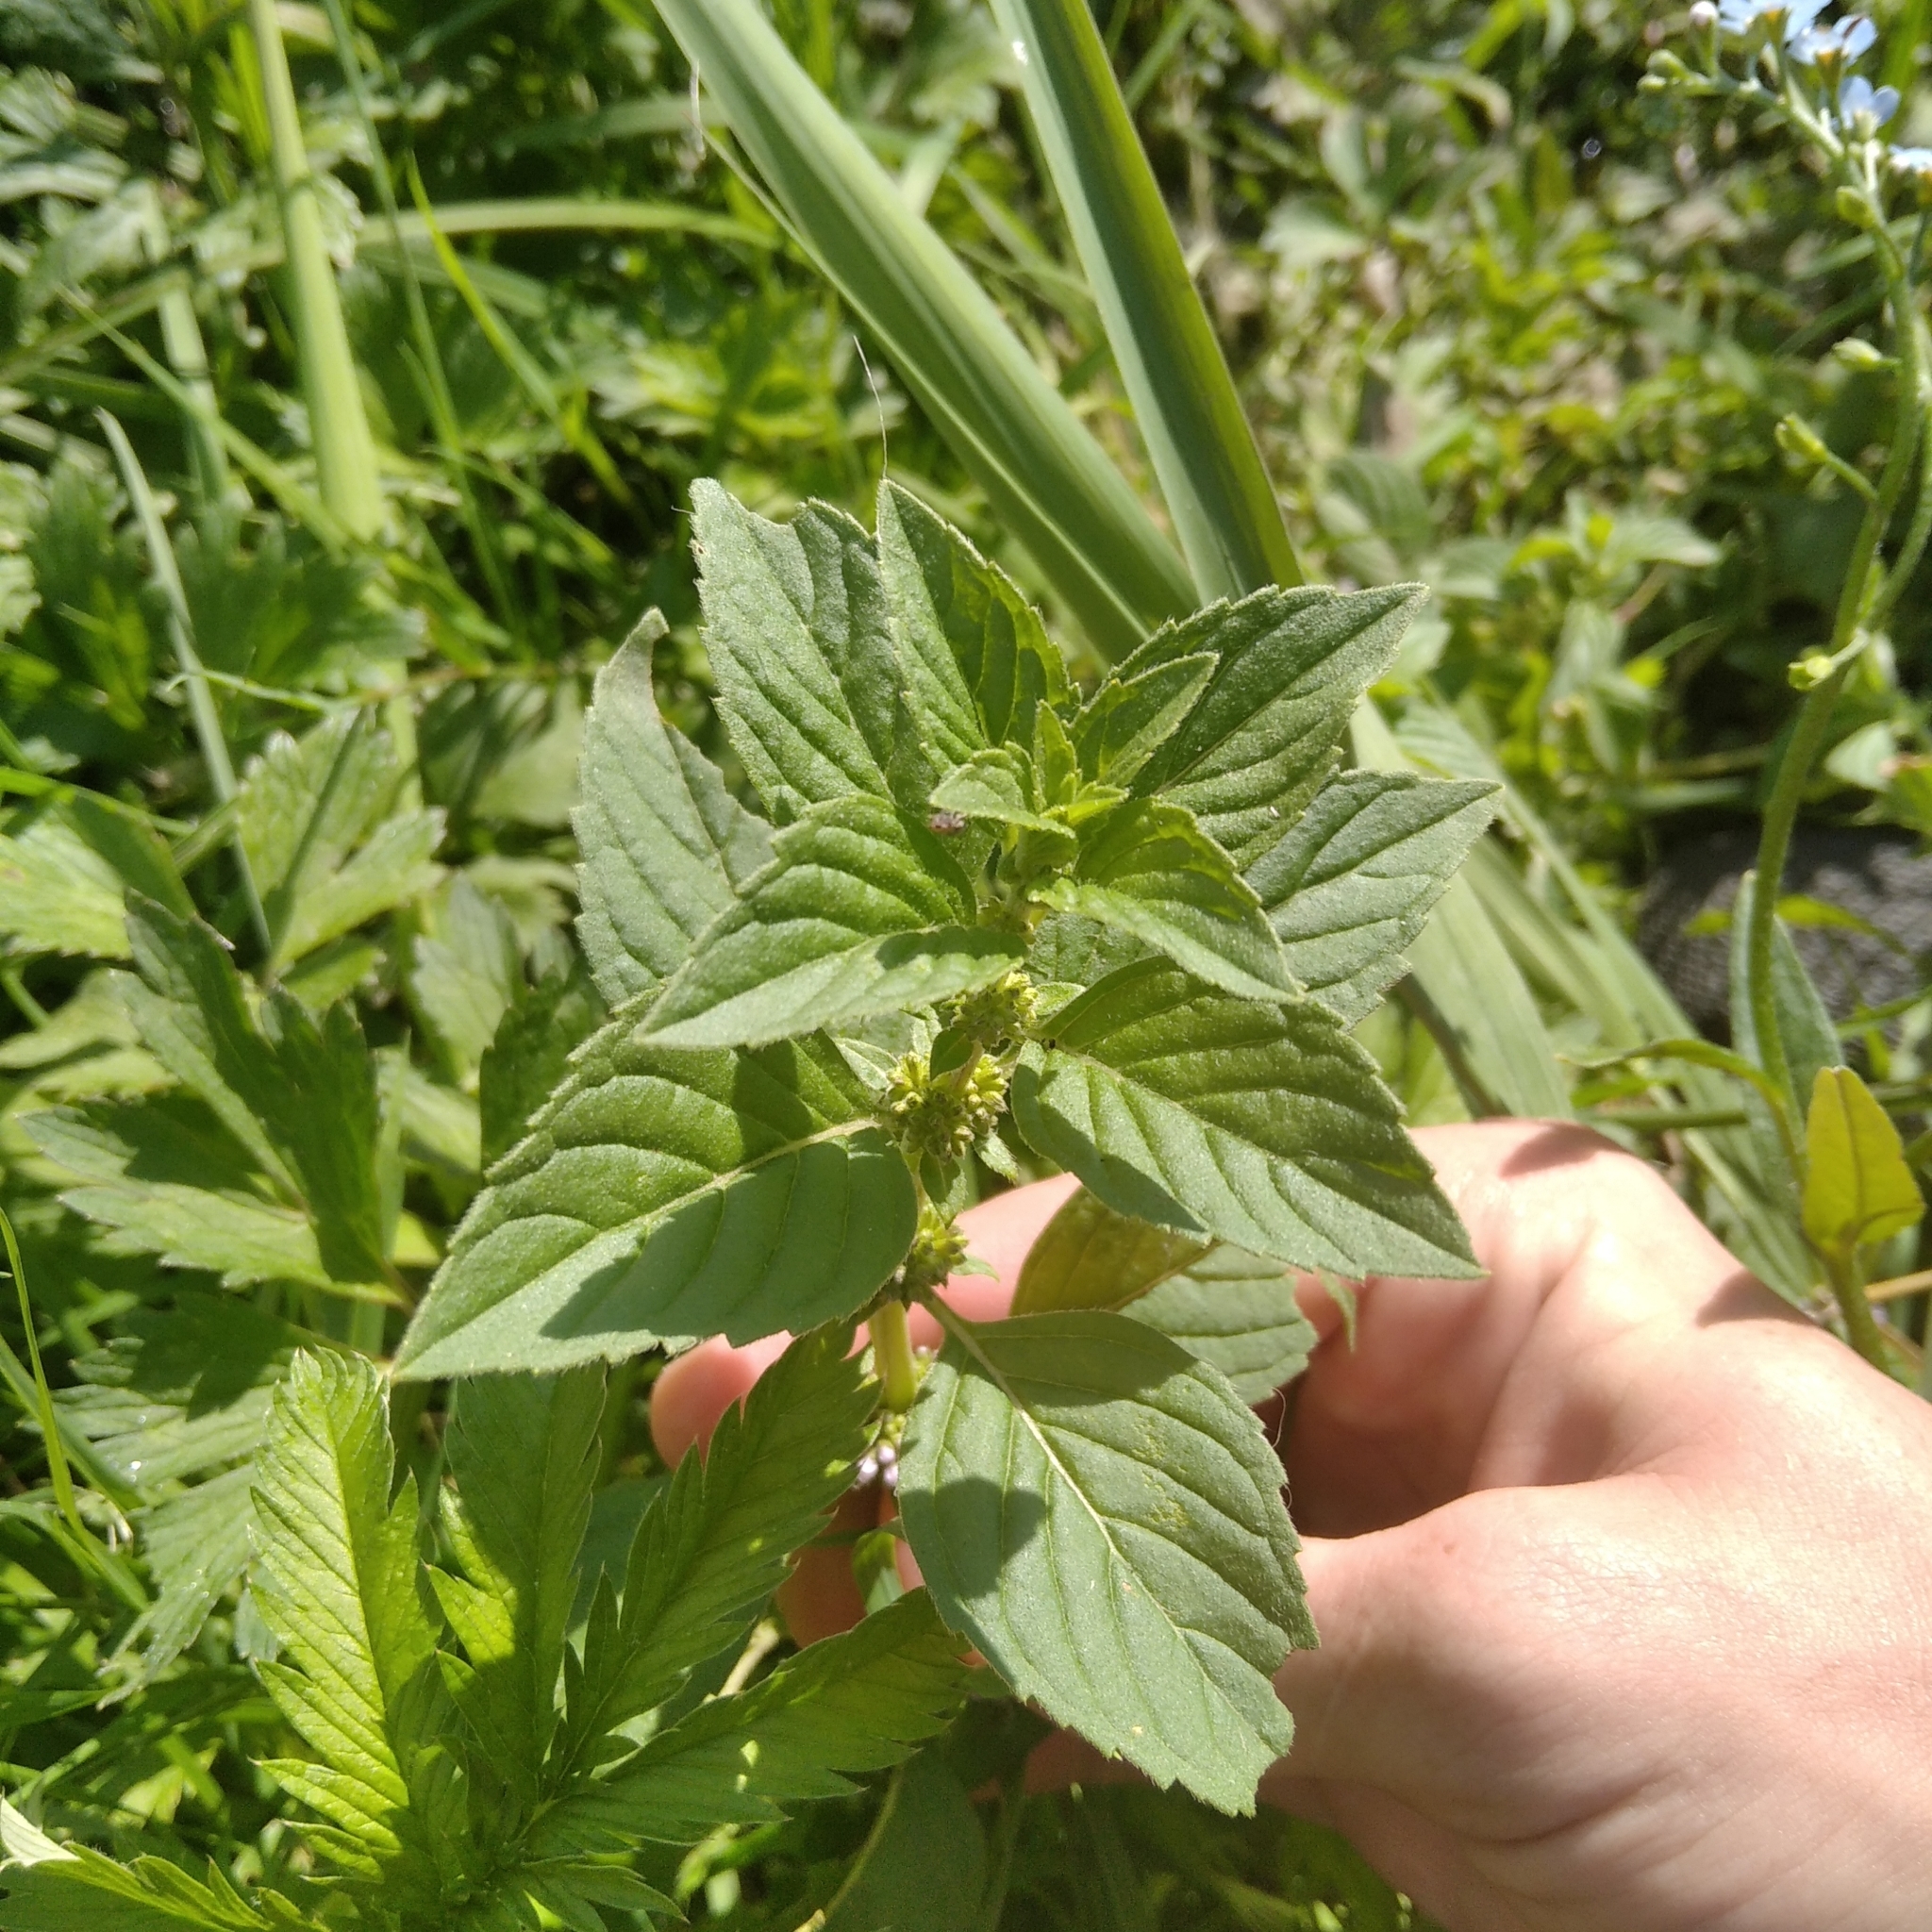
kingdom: Plantae
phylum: Tracheophyta
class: Magnoliopsida
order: Lamiales
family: Lamiaceae
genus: Mentha
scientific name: Mentha arvensis
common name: Corn mint
